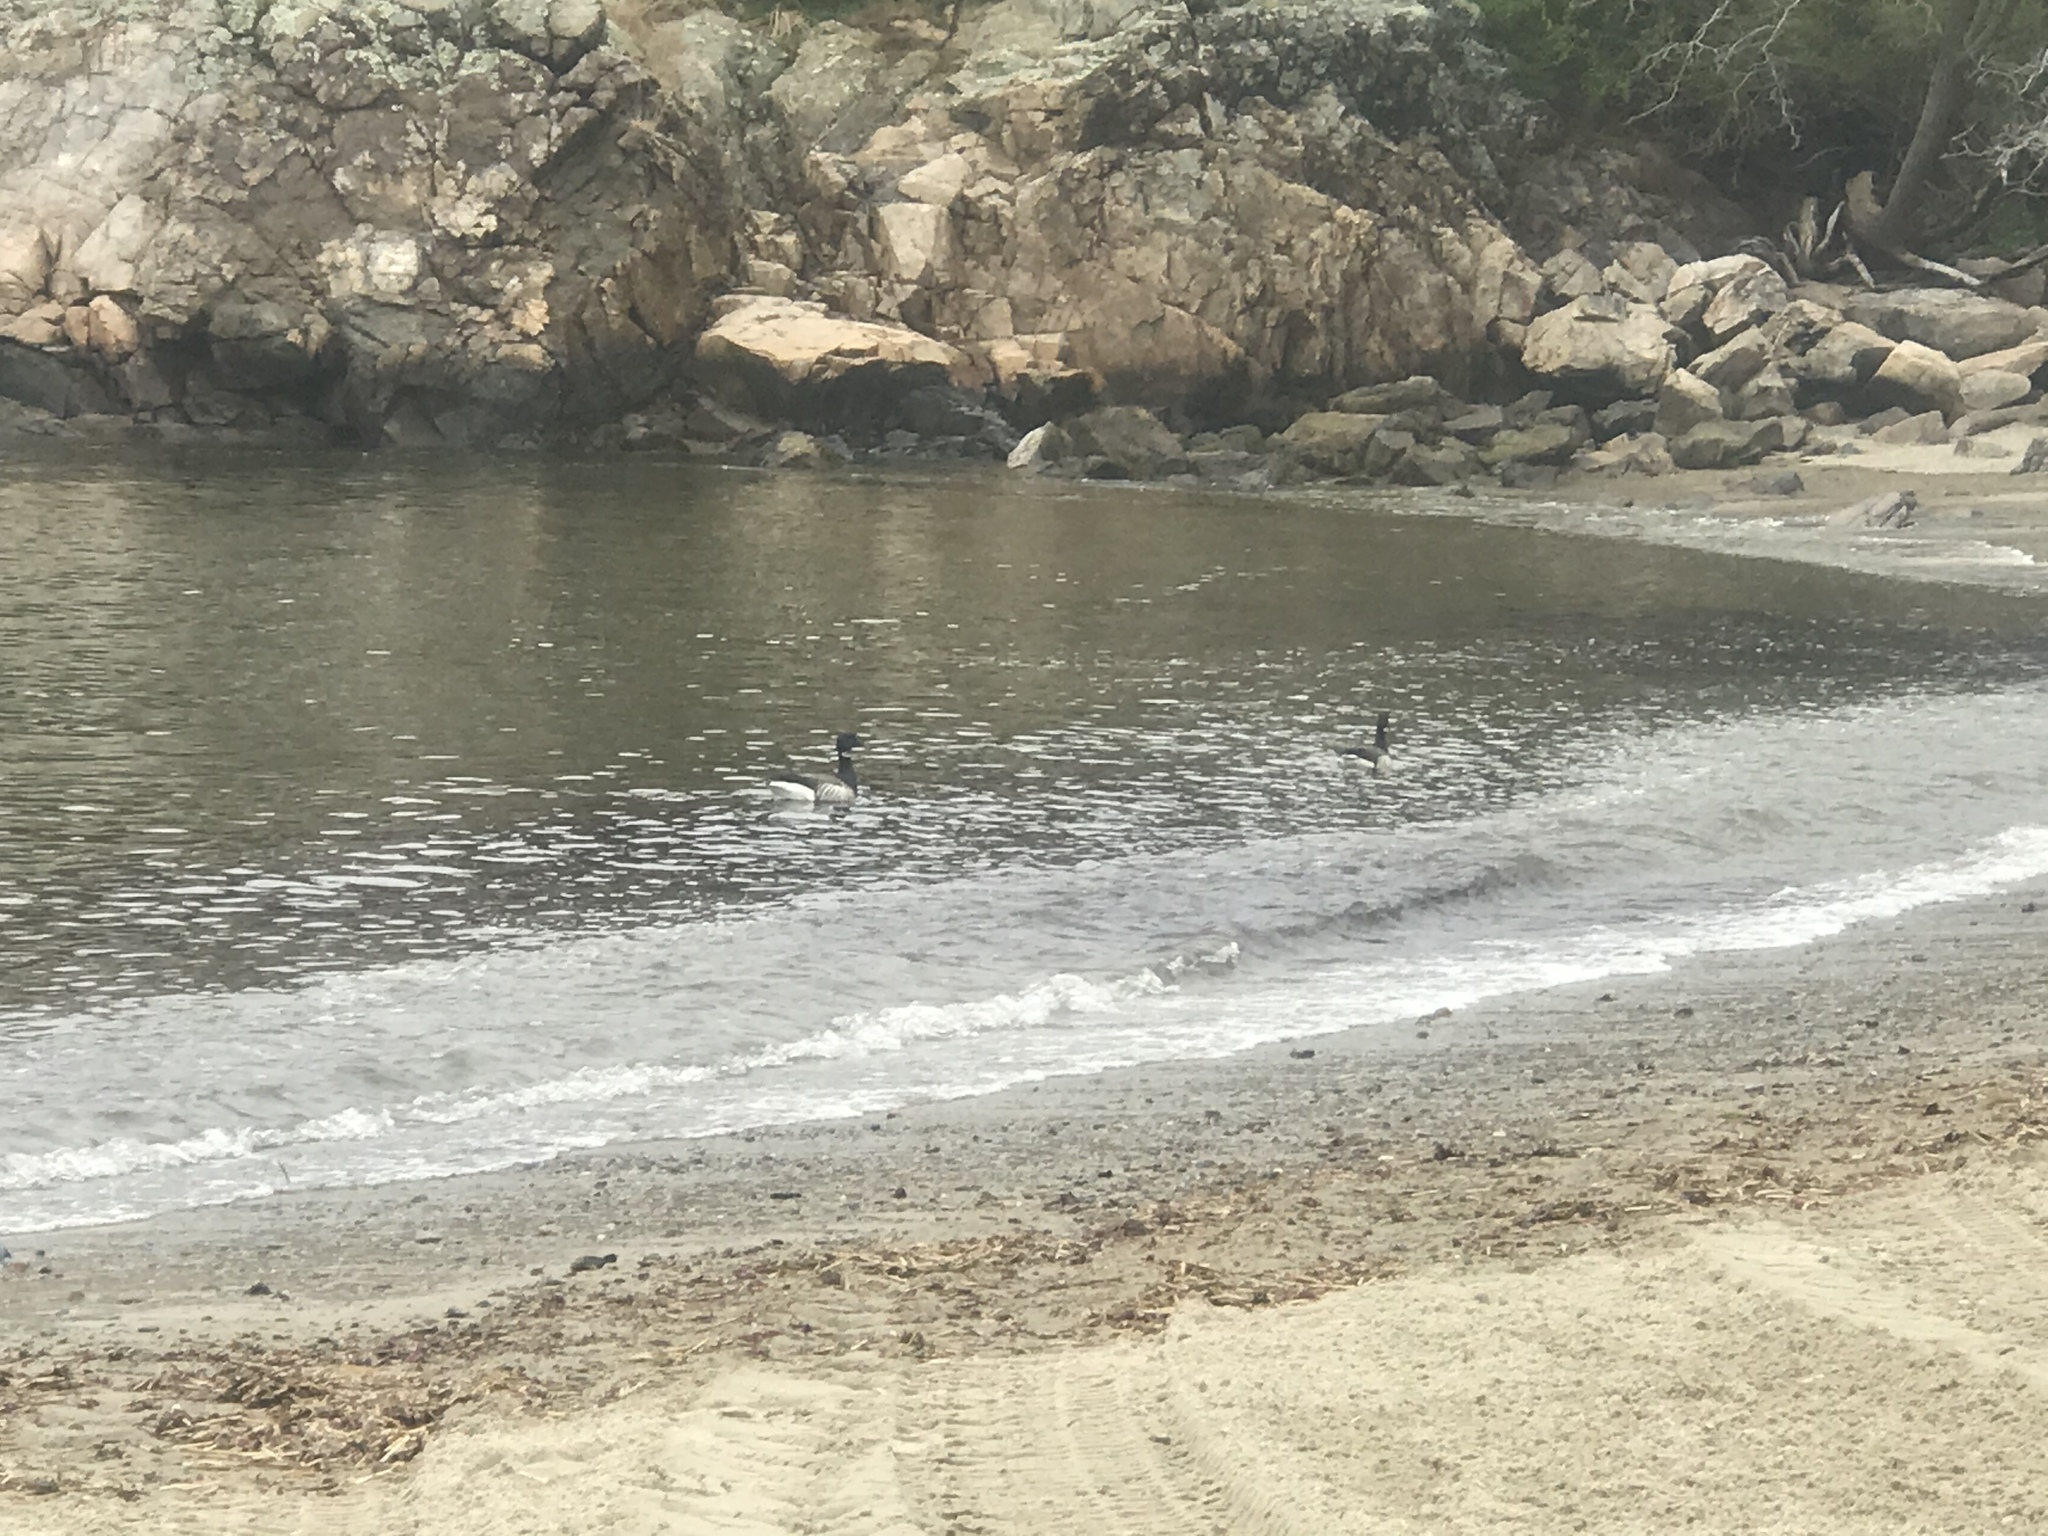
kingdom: Animalia
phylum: Chordata
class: Aves
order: Anseriformes
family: Anatidae
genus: Branta
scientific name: Branta bernicla
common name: Brant goose
